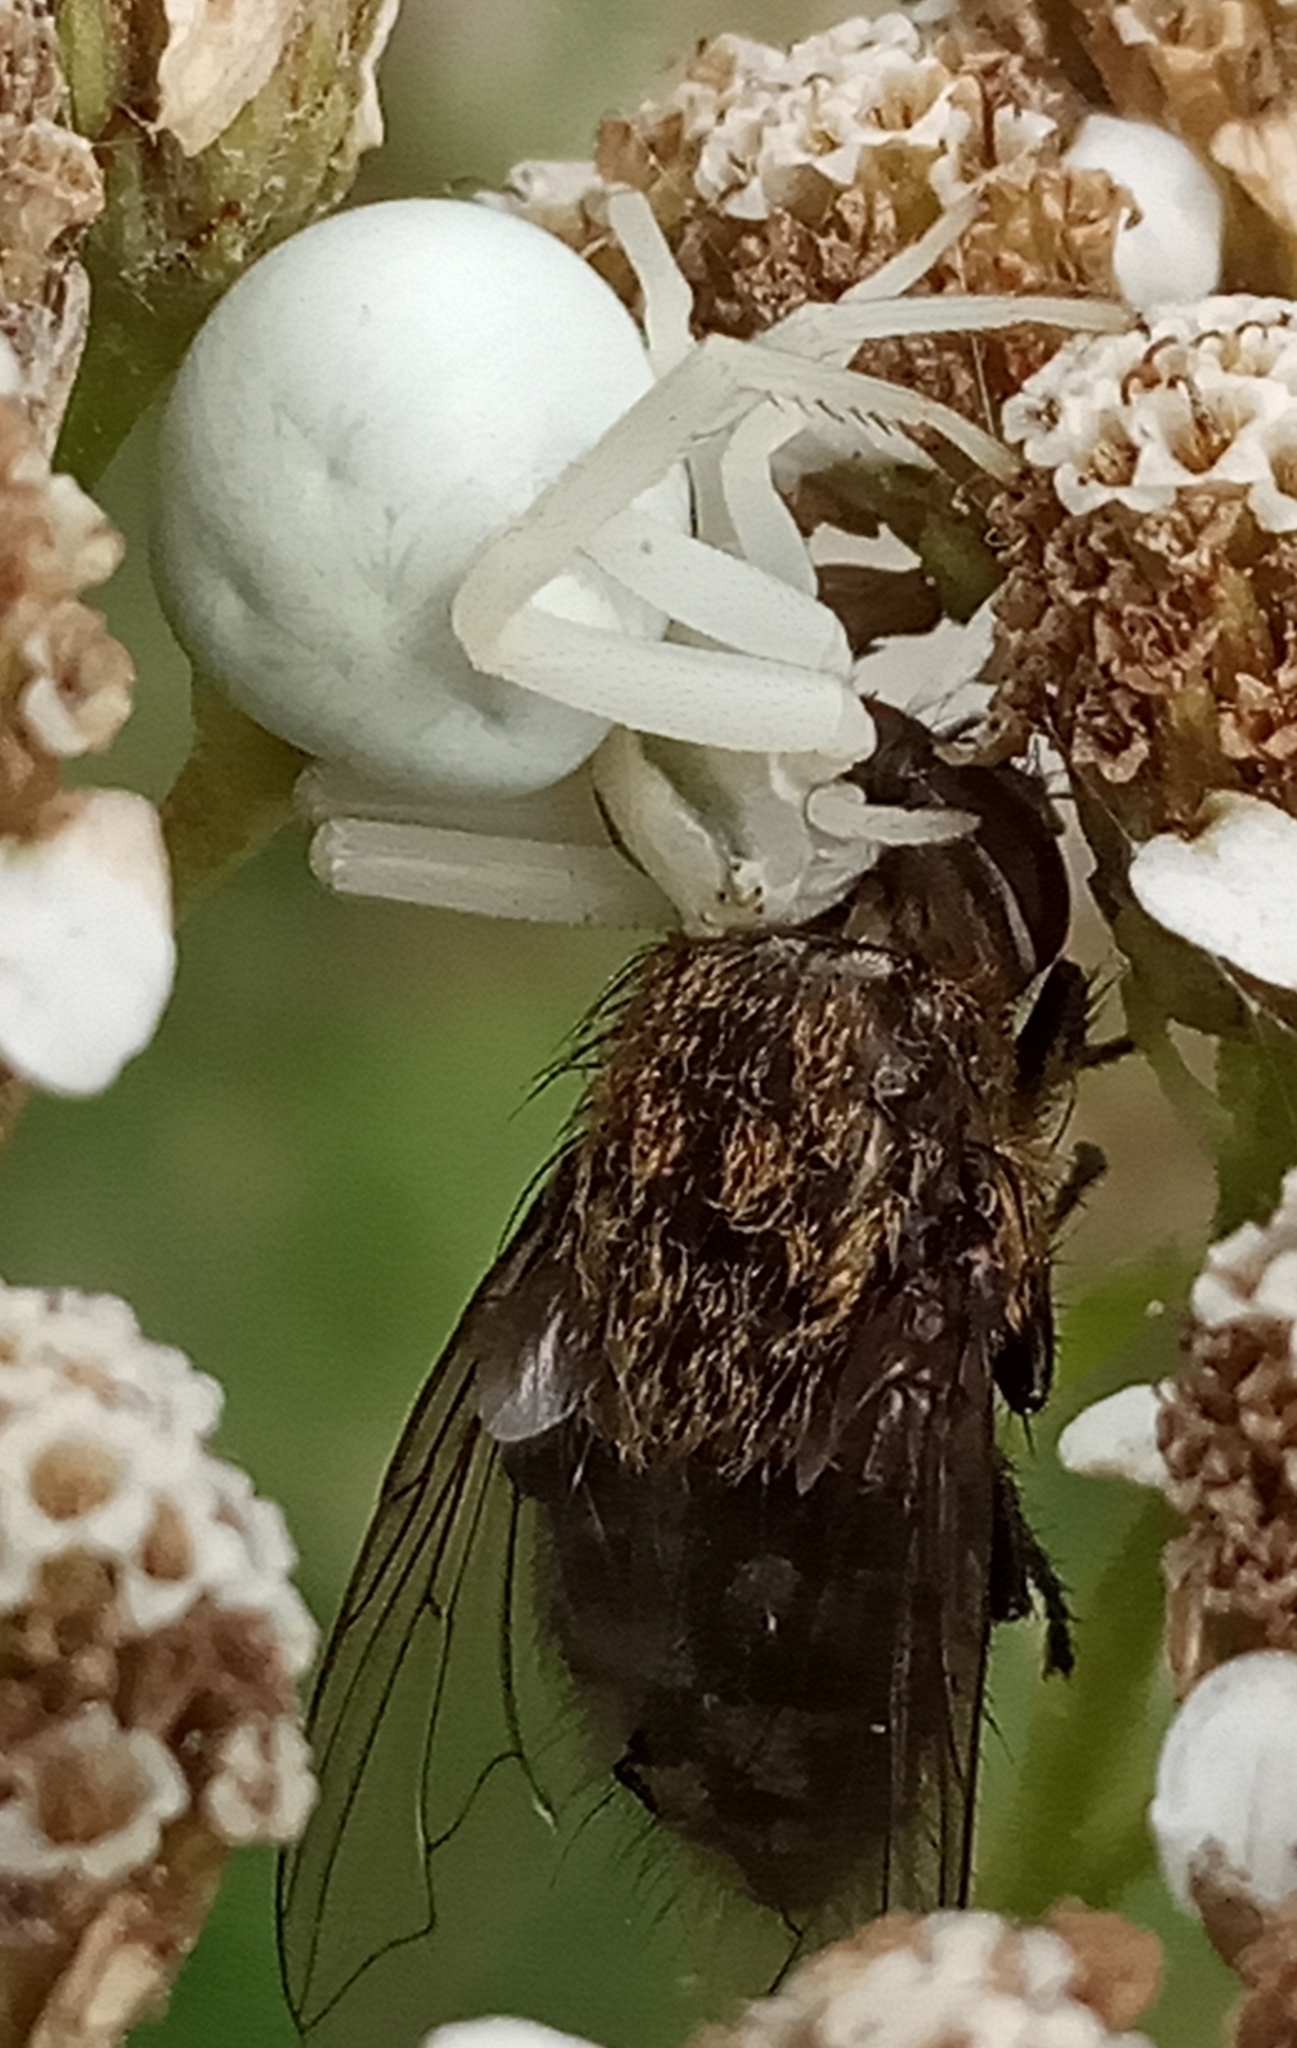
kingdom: Animalia
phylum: Arthropoda
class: Arachnida
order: Araneae
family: Thomisidae
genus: Misumena
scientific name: Misumena vatia
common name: Goldenrod crab spider
